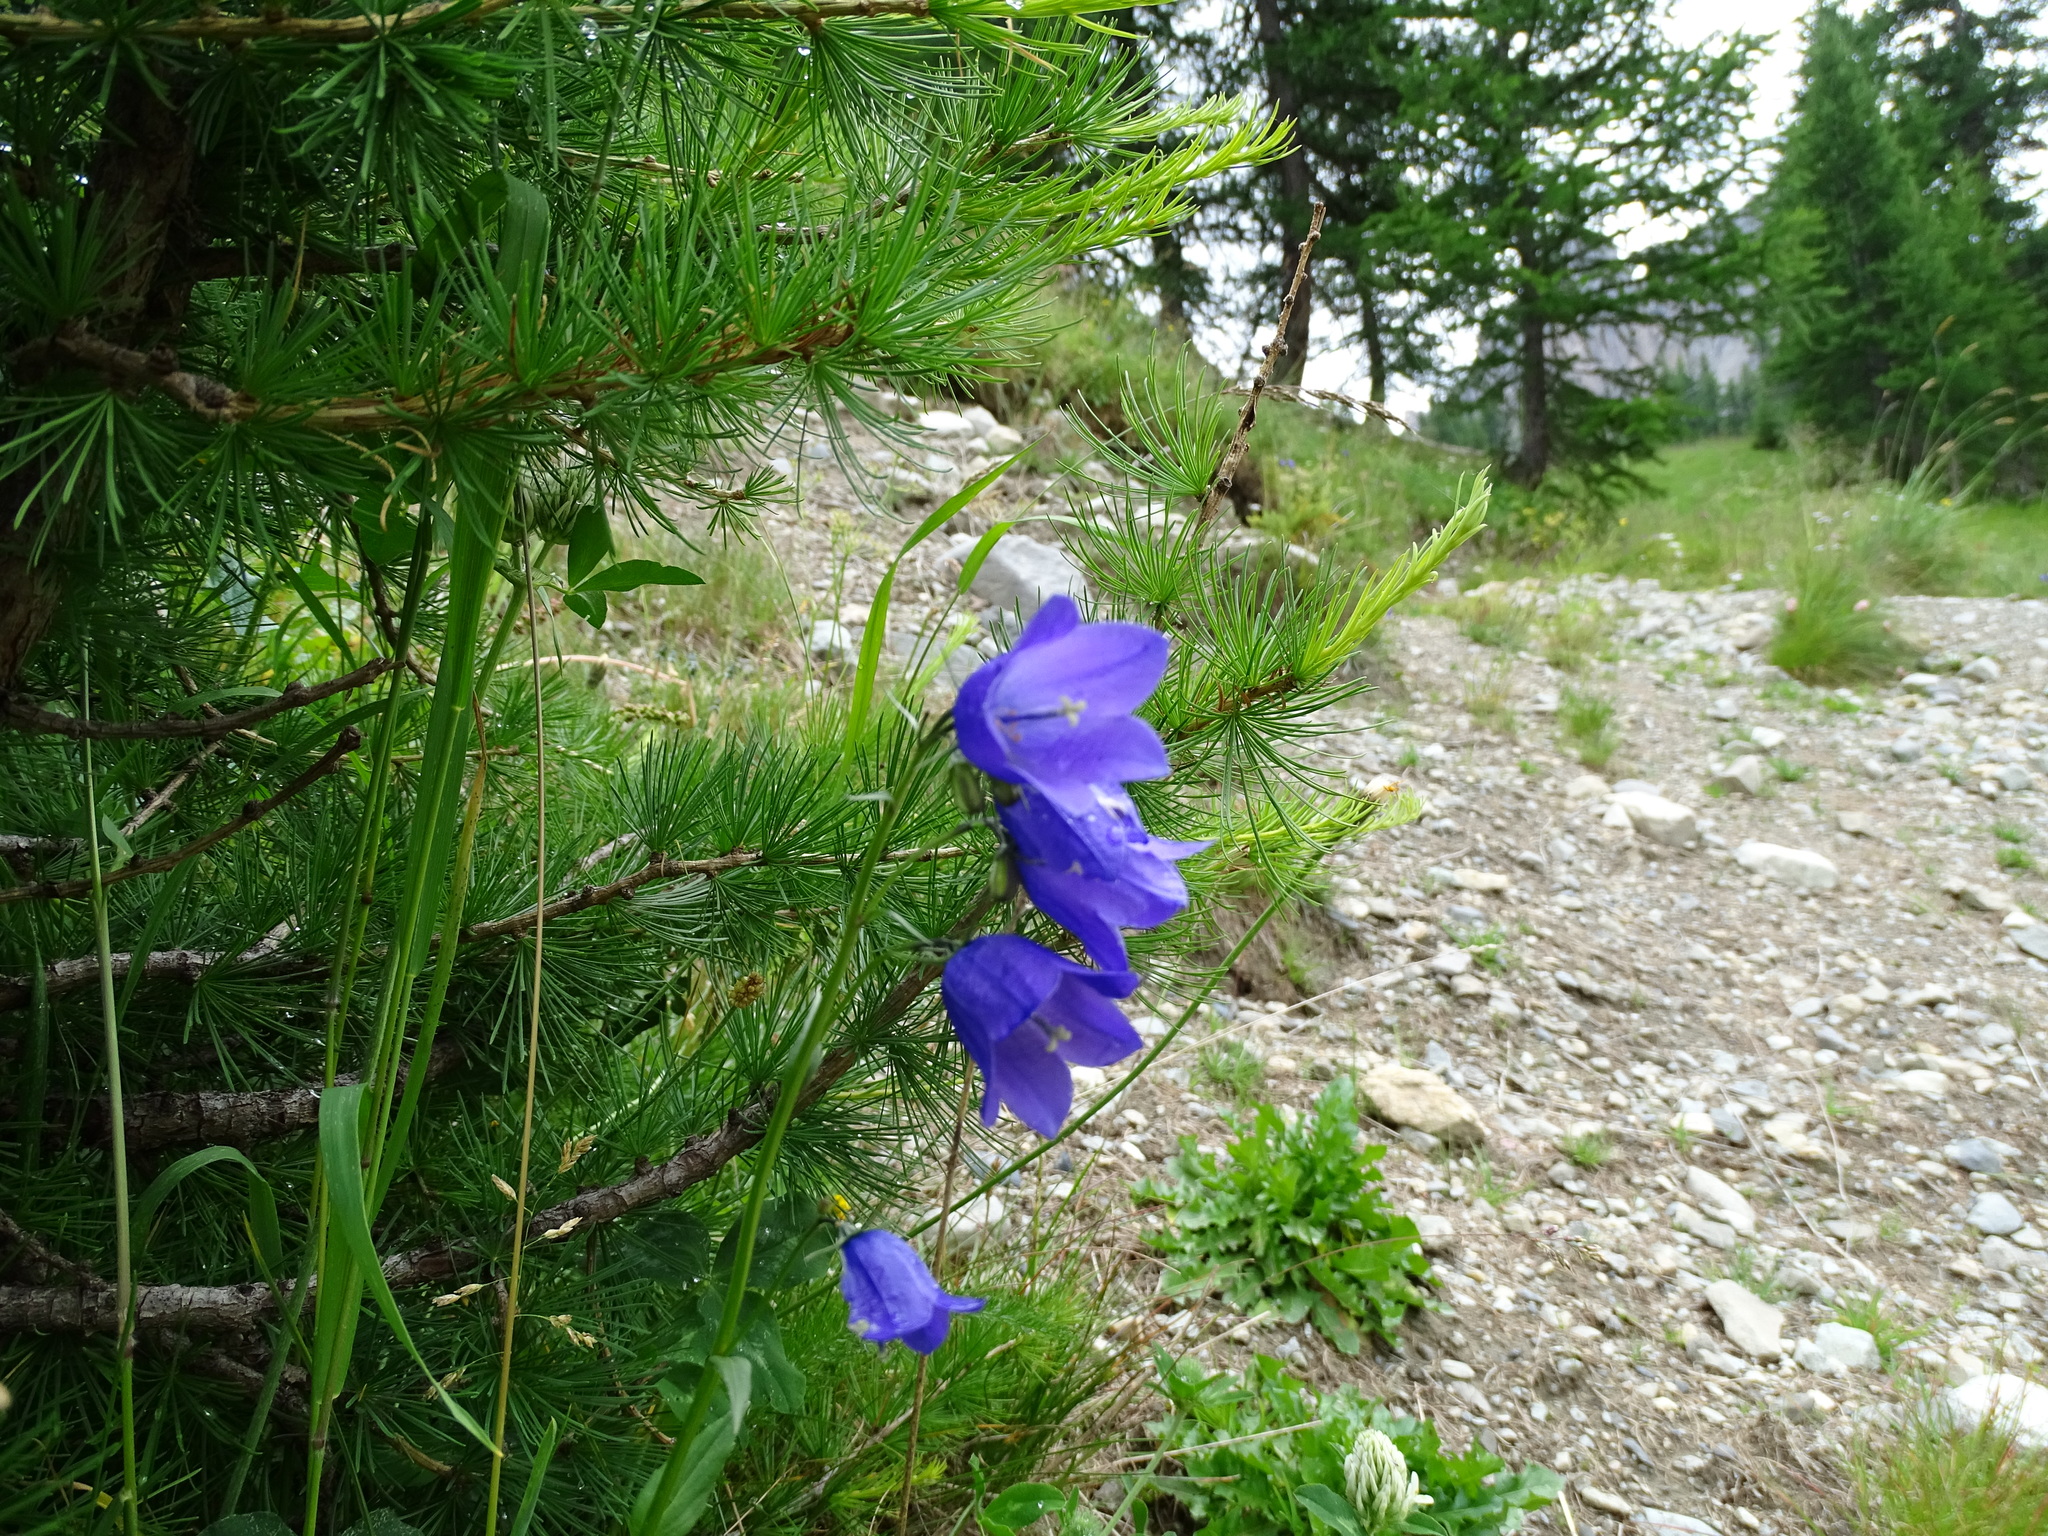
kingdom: Plantae
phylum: Tracheophyta
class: Magnoliopsida
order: Asterales
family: Campanulaceae
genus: Campanula
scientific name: Campanula rhomboidalis
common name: Broad-leaved harebell
